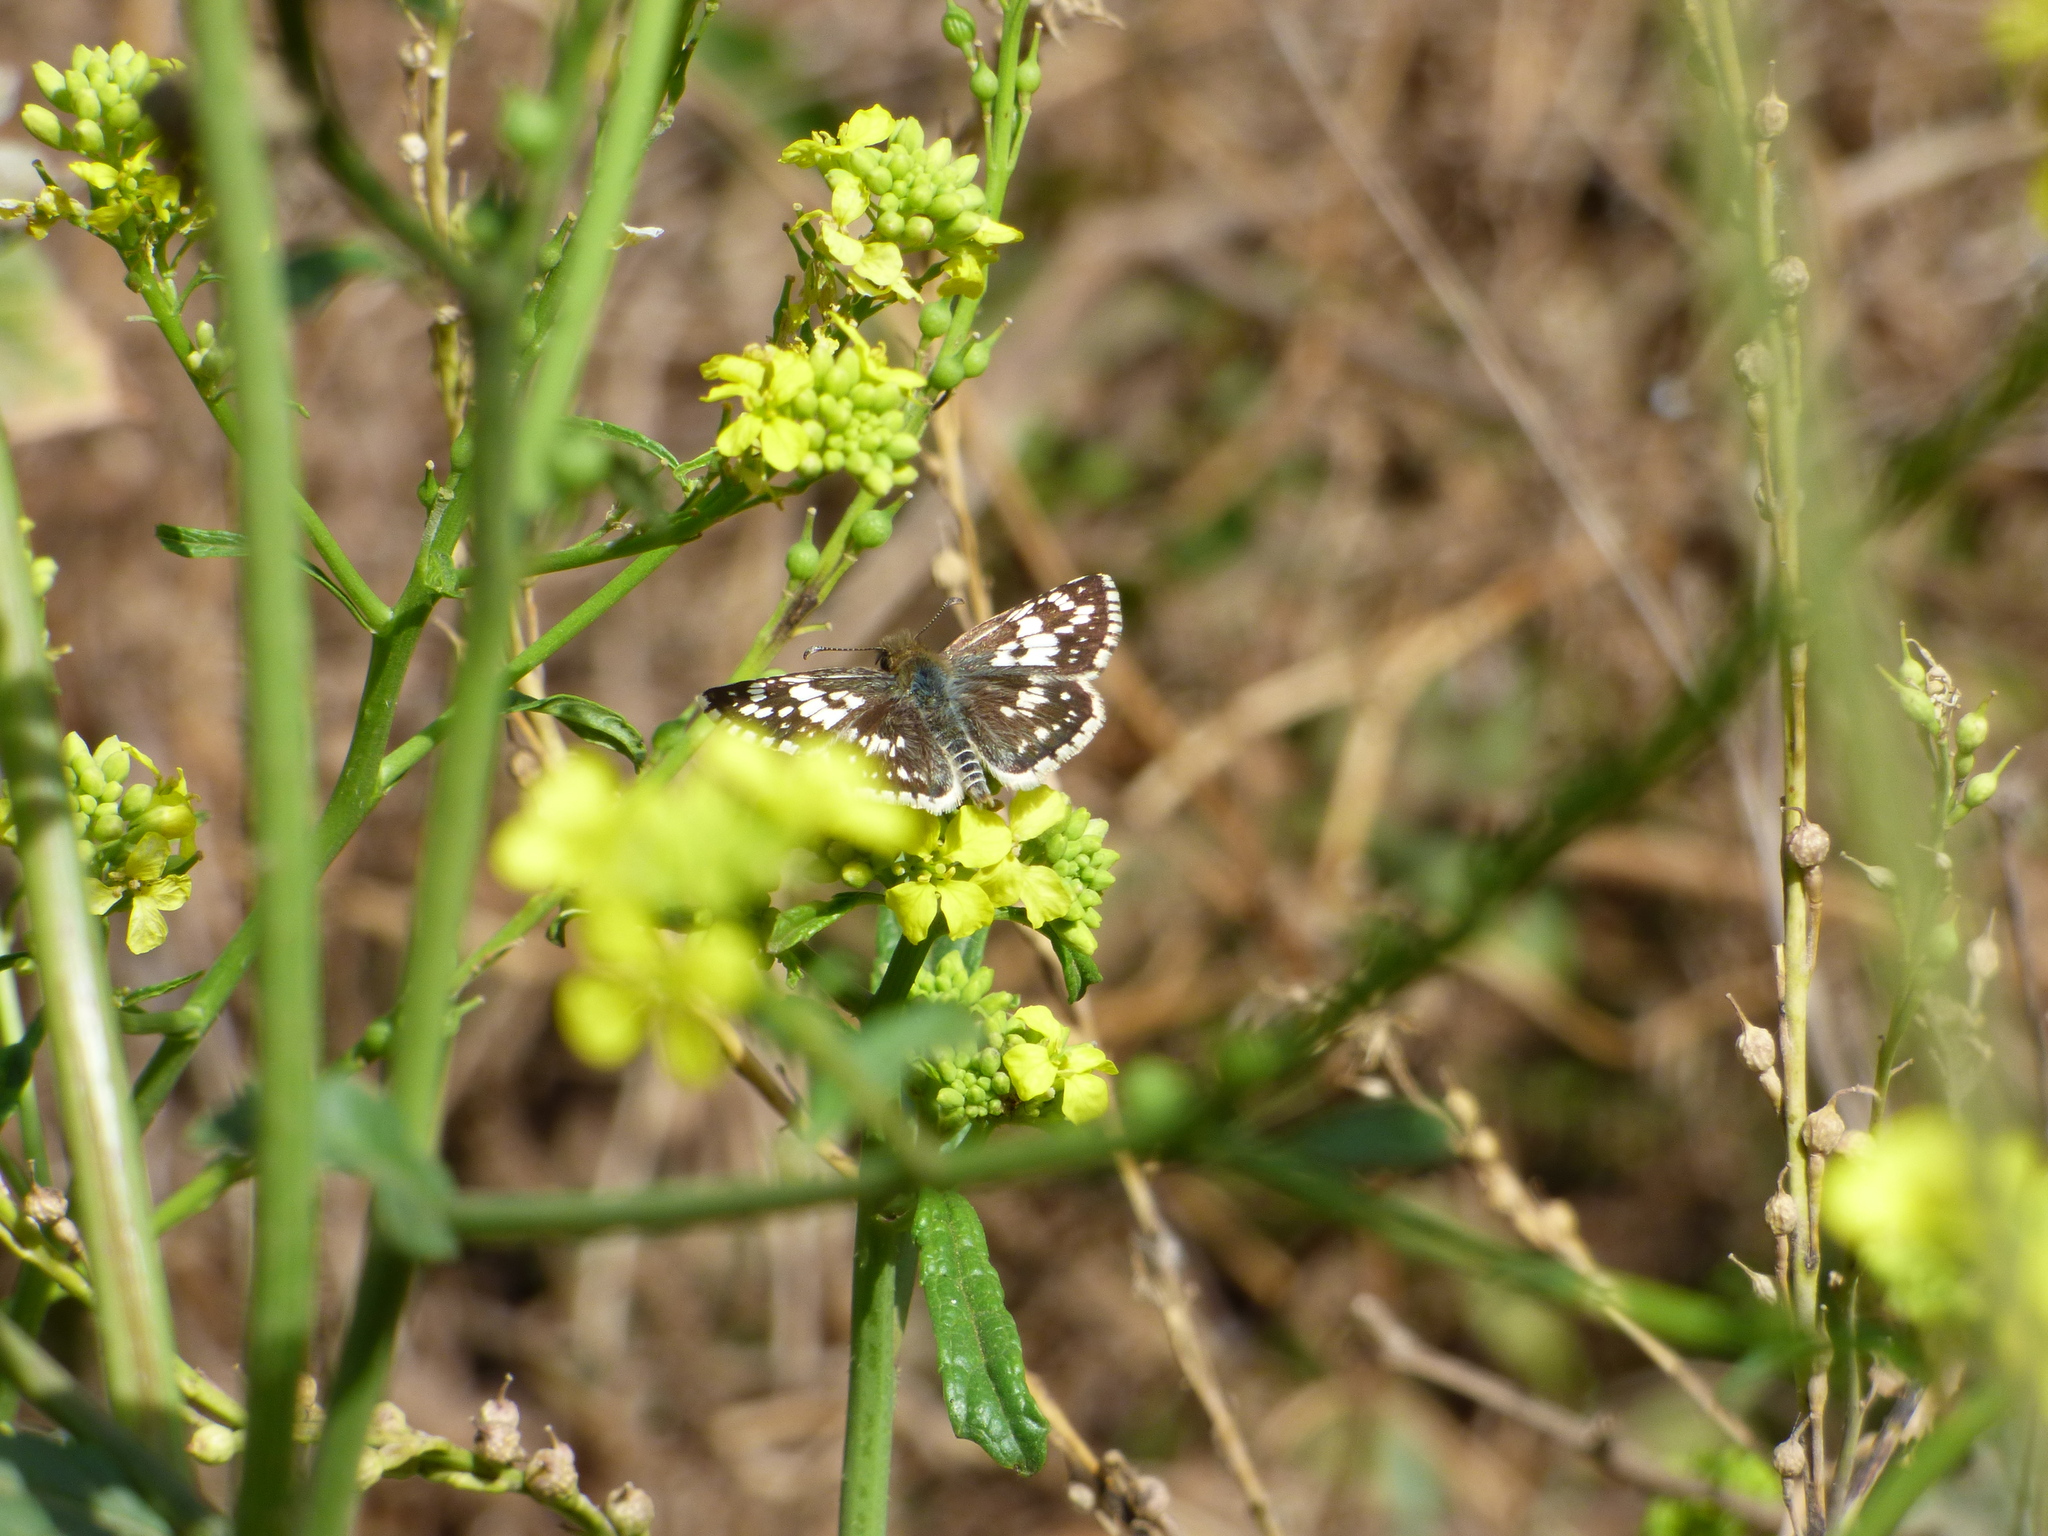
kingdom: Animalia
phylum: Arthropoda
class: Insecta
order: Lepidoptera
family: Hesperiidae
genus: Burnsius
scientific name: Burnsius orcynoides
